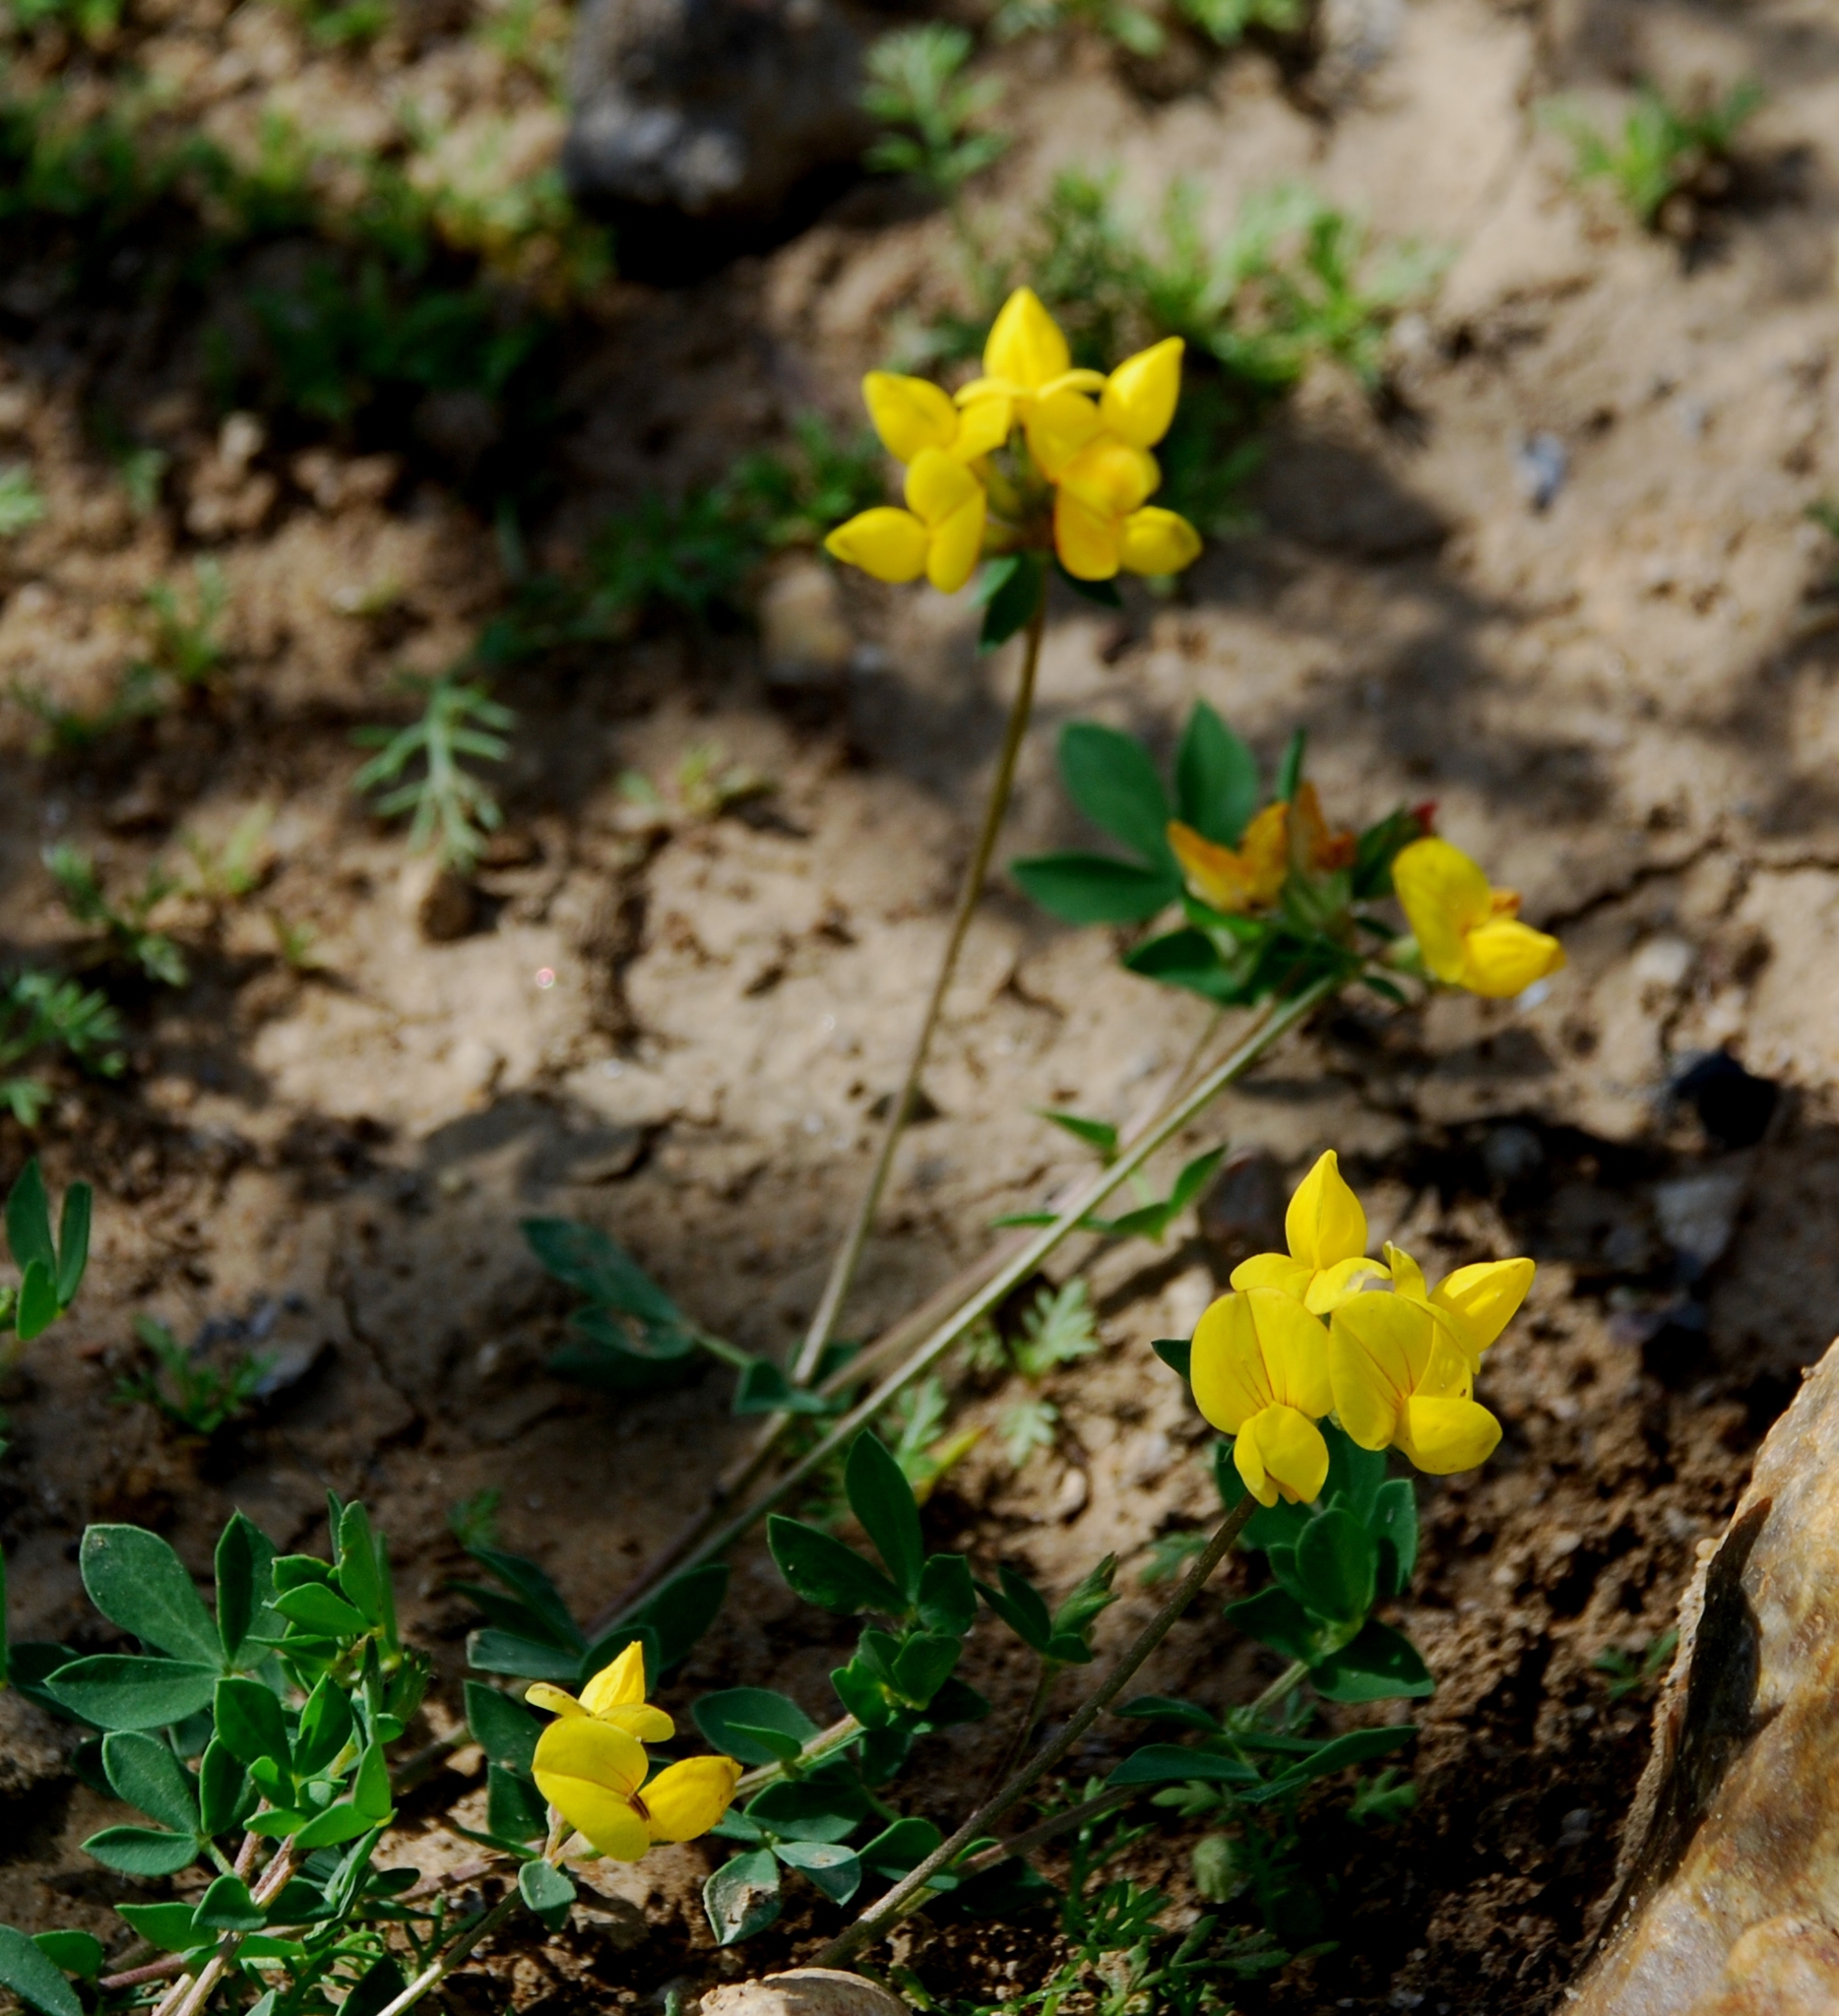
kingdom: Plantae
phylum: Tracheophyta
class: Magnoliopsida
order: Fabales
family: Fabaceae
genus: Lotus
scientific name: Lotus corniculatus
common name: Common bird's-foot-trefoil
